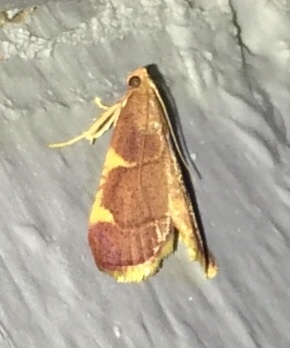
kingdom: Animalia
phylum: Arthropoda
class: Insecta
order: Lepidoptera
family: Pyralidae
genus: Hypsopygia
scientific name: Hypsopygia olinalis
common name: Yellow-fringed dolichomia moth
